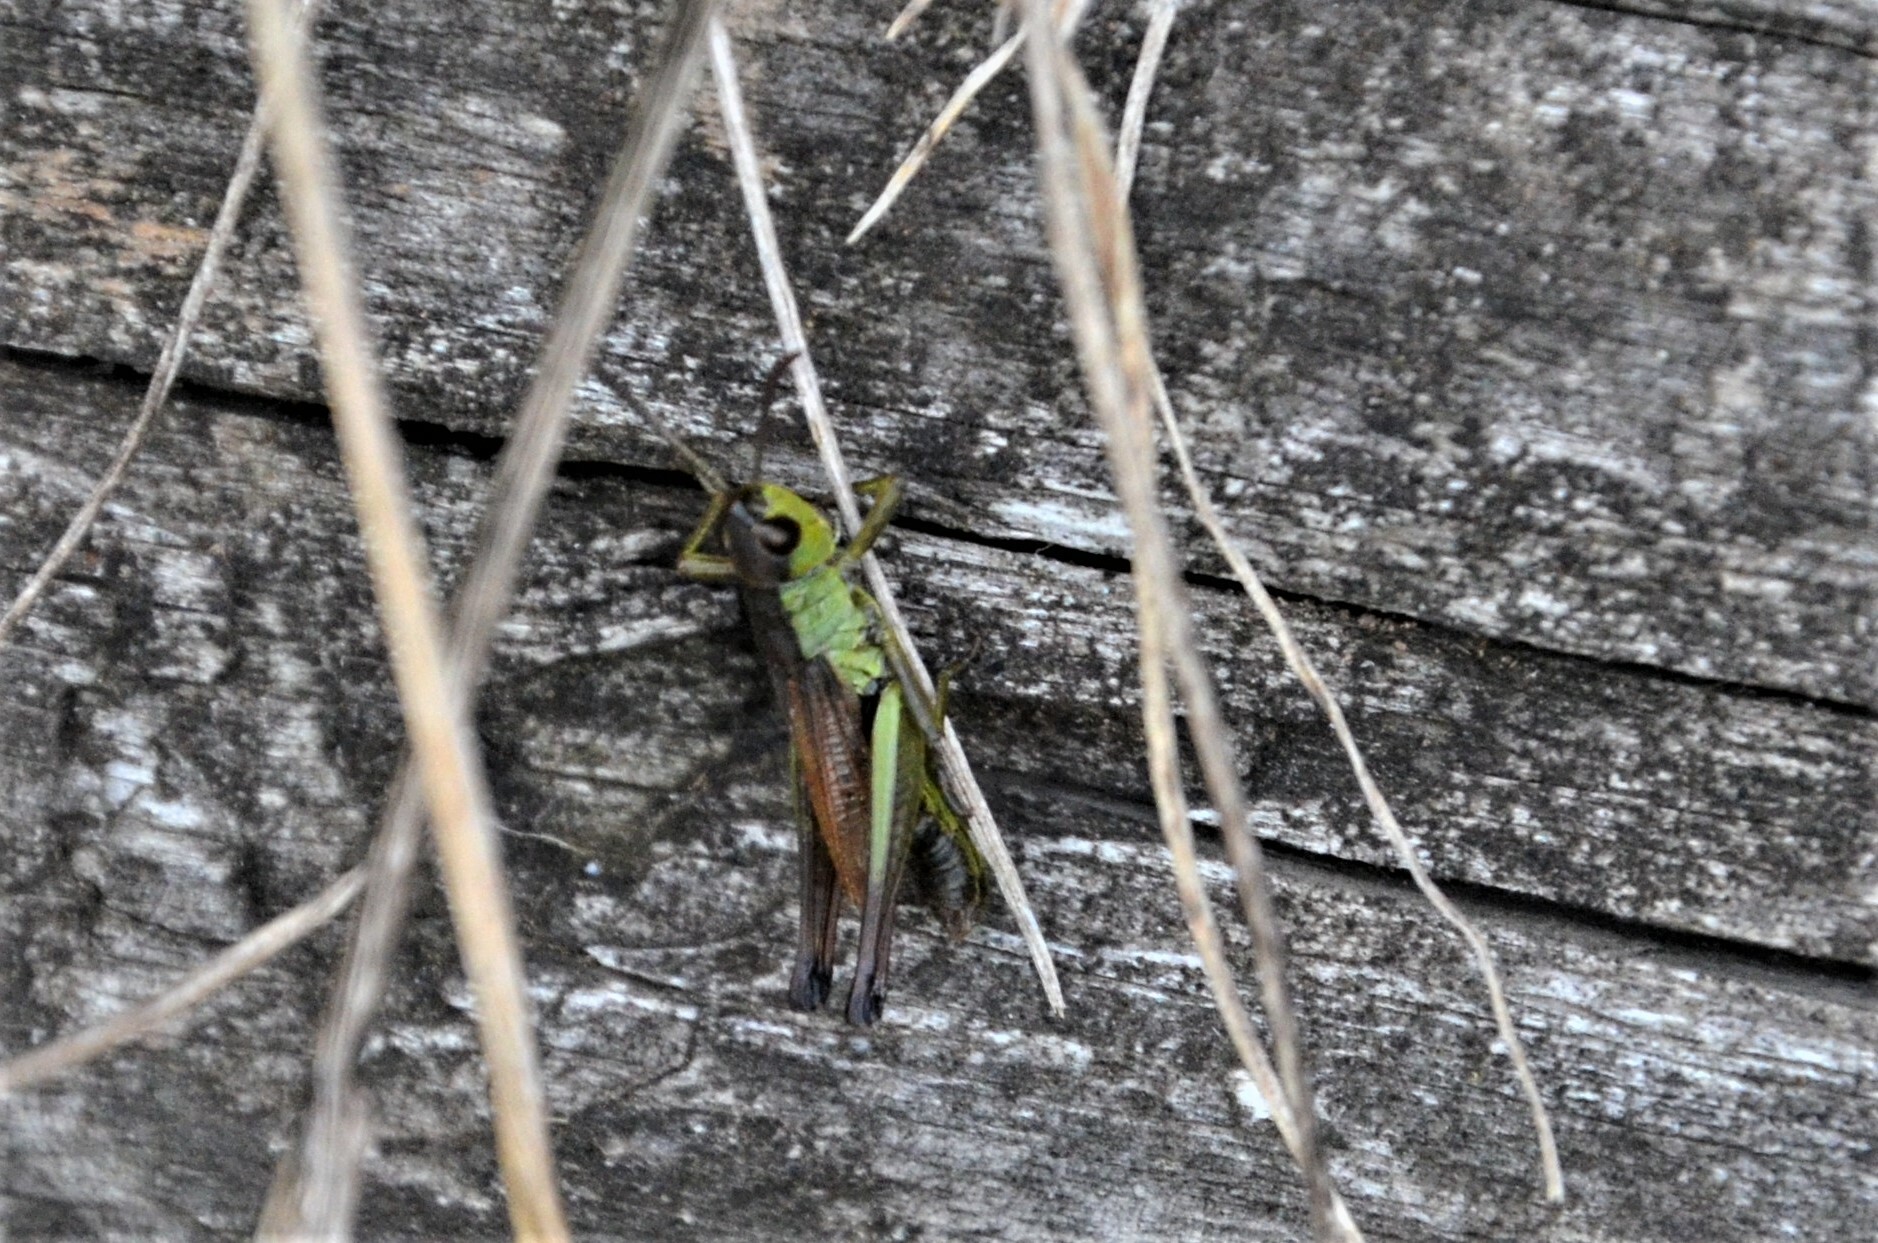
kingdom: Animalia
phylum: Arthropoda
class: Insecta
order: Orthoptera
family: Acrididae
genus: Pseudochorthippus
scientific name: Pseudochorthippus parallelus
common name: Meadow grasshopper
